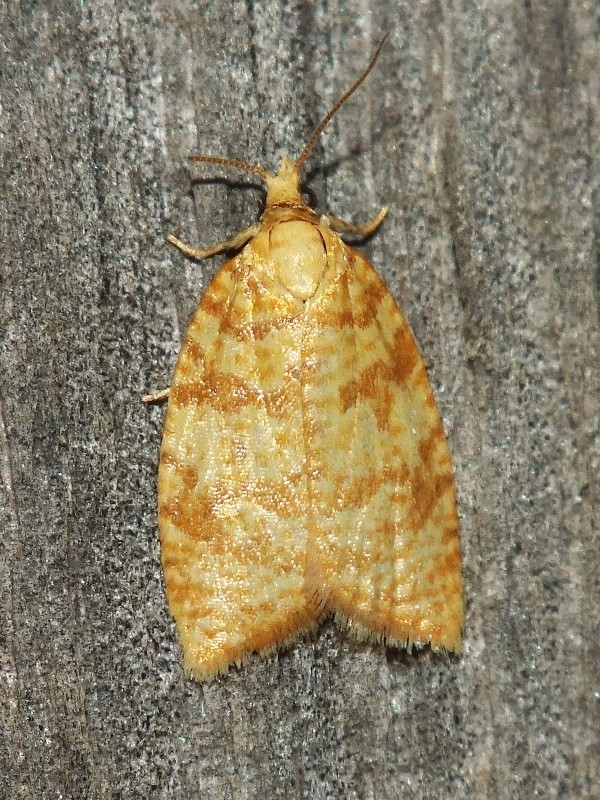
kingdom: Animalia
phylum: Arthropoda
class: Insecta
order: Lepidoptera
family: Tortricidae
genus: Aleimma
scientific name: Aleimma loeflingiana
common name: Yellow oak button
